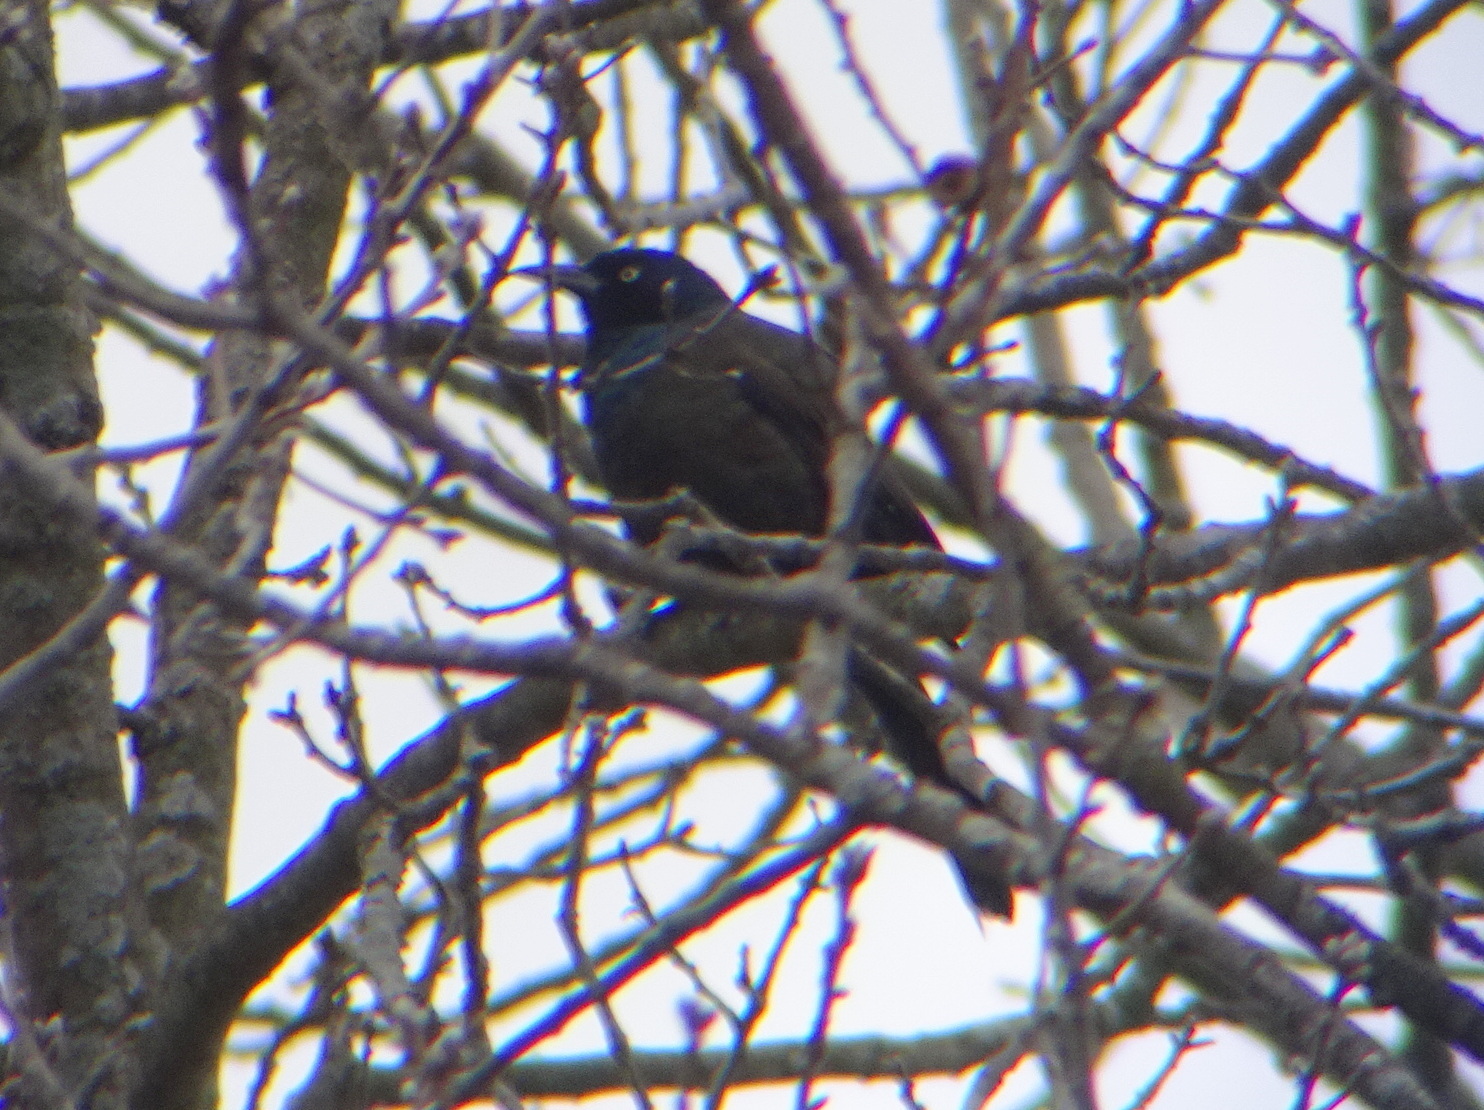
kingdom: Animalia
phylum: Chordata
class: Aves
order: Passeriformes
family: Icteridae
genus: Quiscalus
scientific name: Quiscalus quiscula
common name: Common grackle
